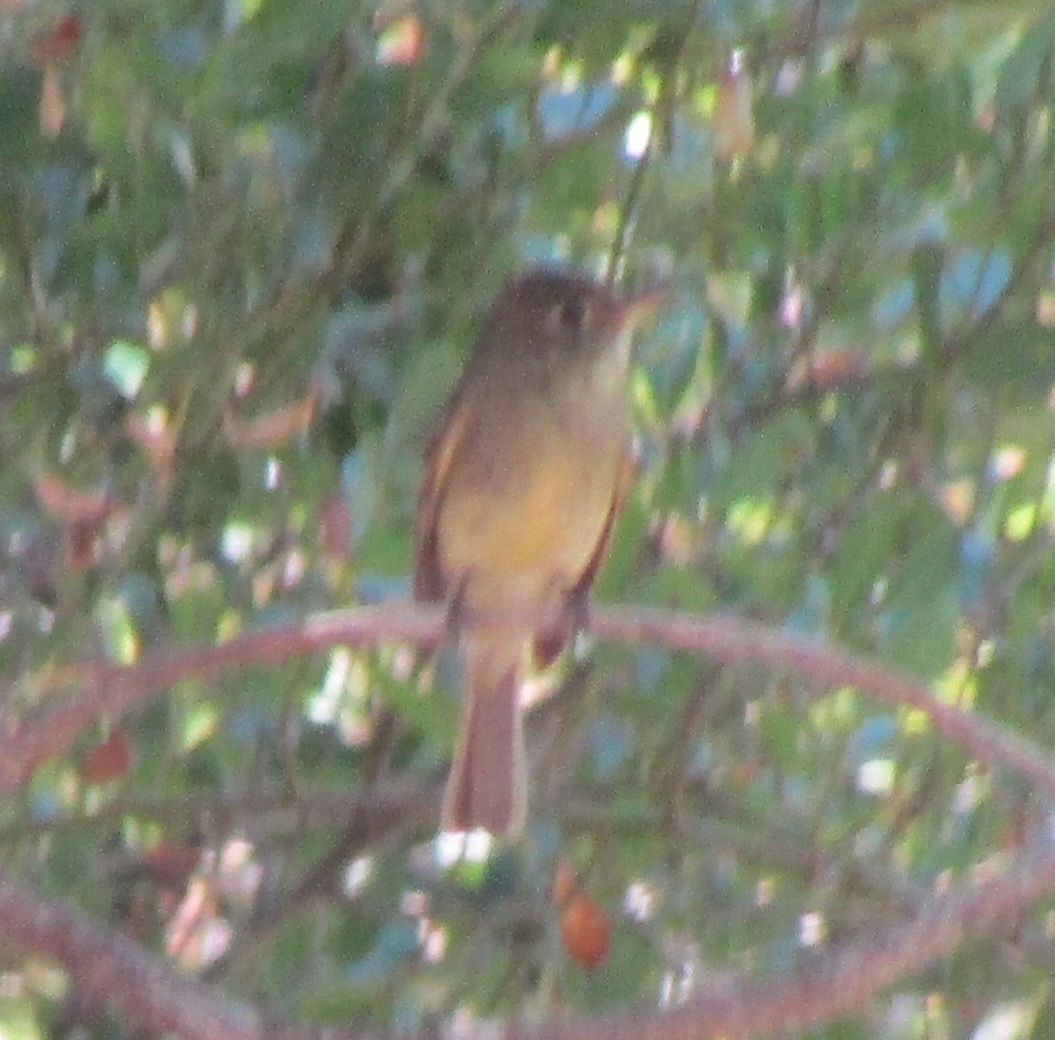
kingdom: Animalia
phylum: Chordata
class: Aves
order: Passeriformes
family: Tyrannidae
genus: Empidonax
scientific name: Empidonax difficilis
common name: Pacific-slope flycatcher
